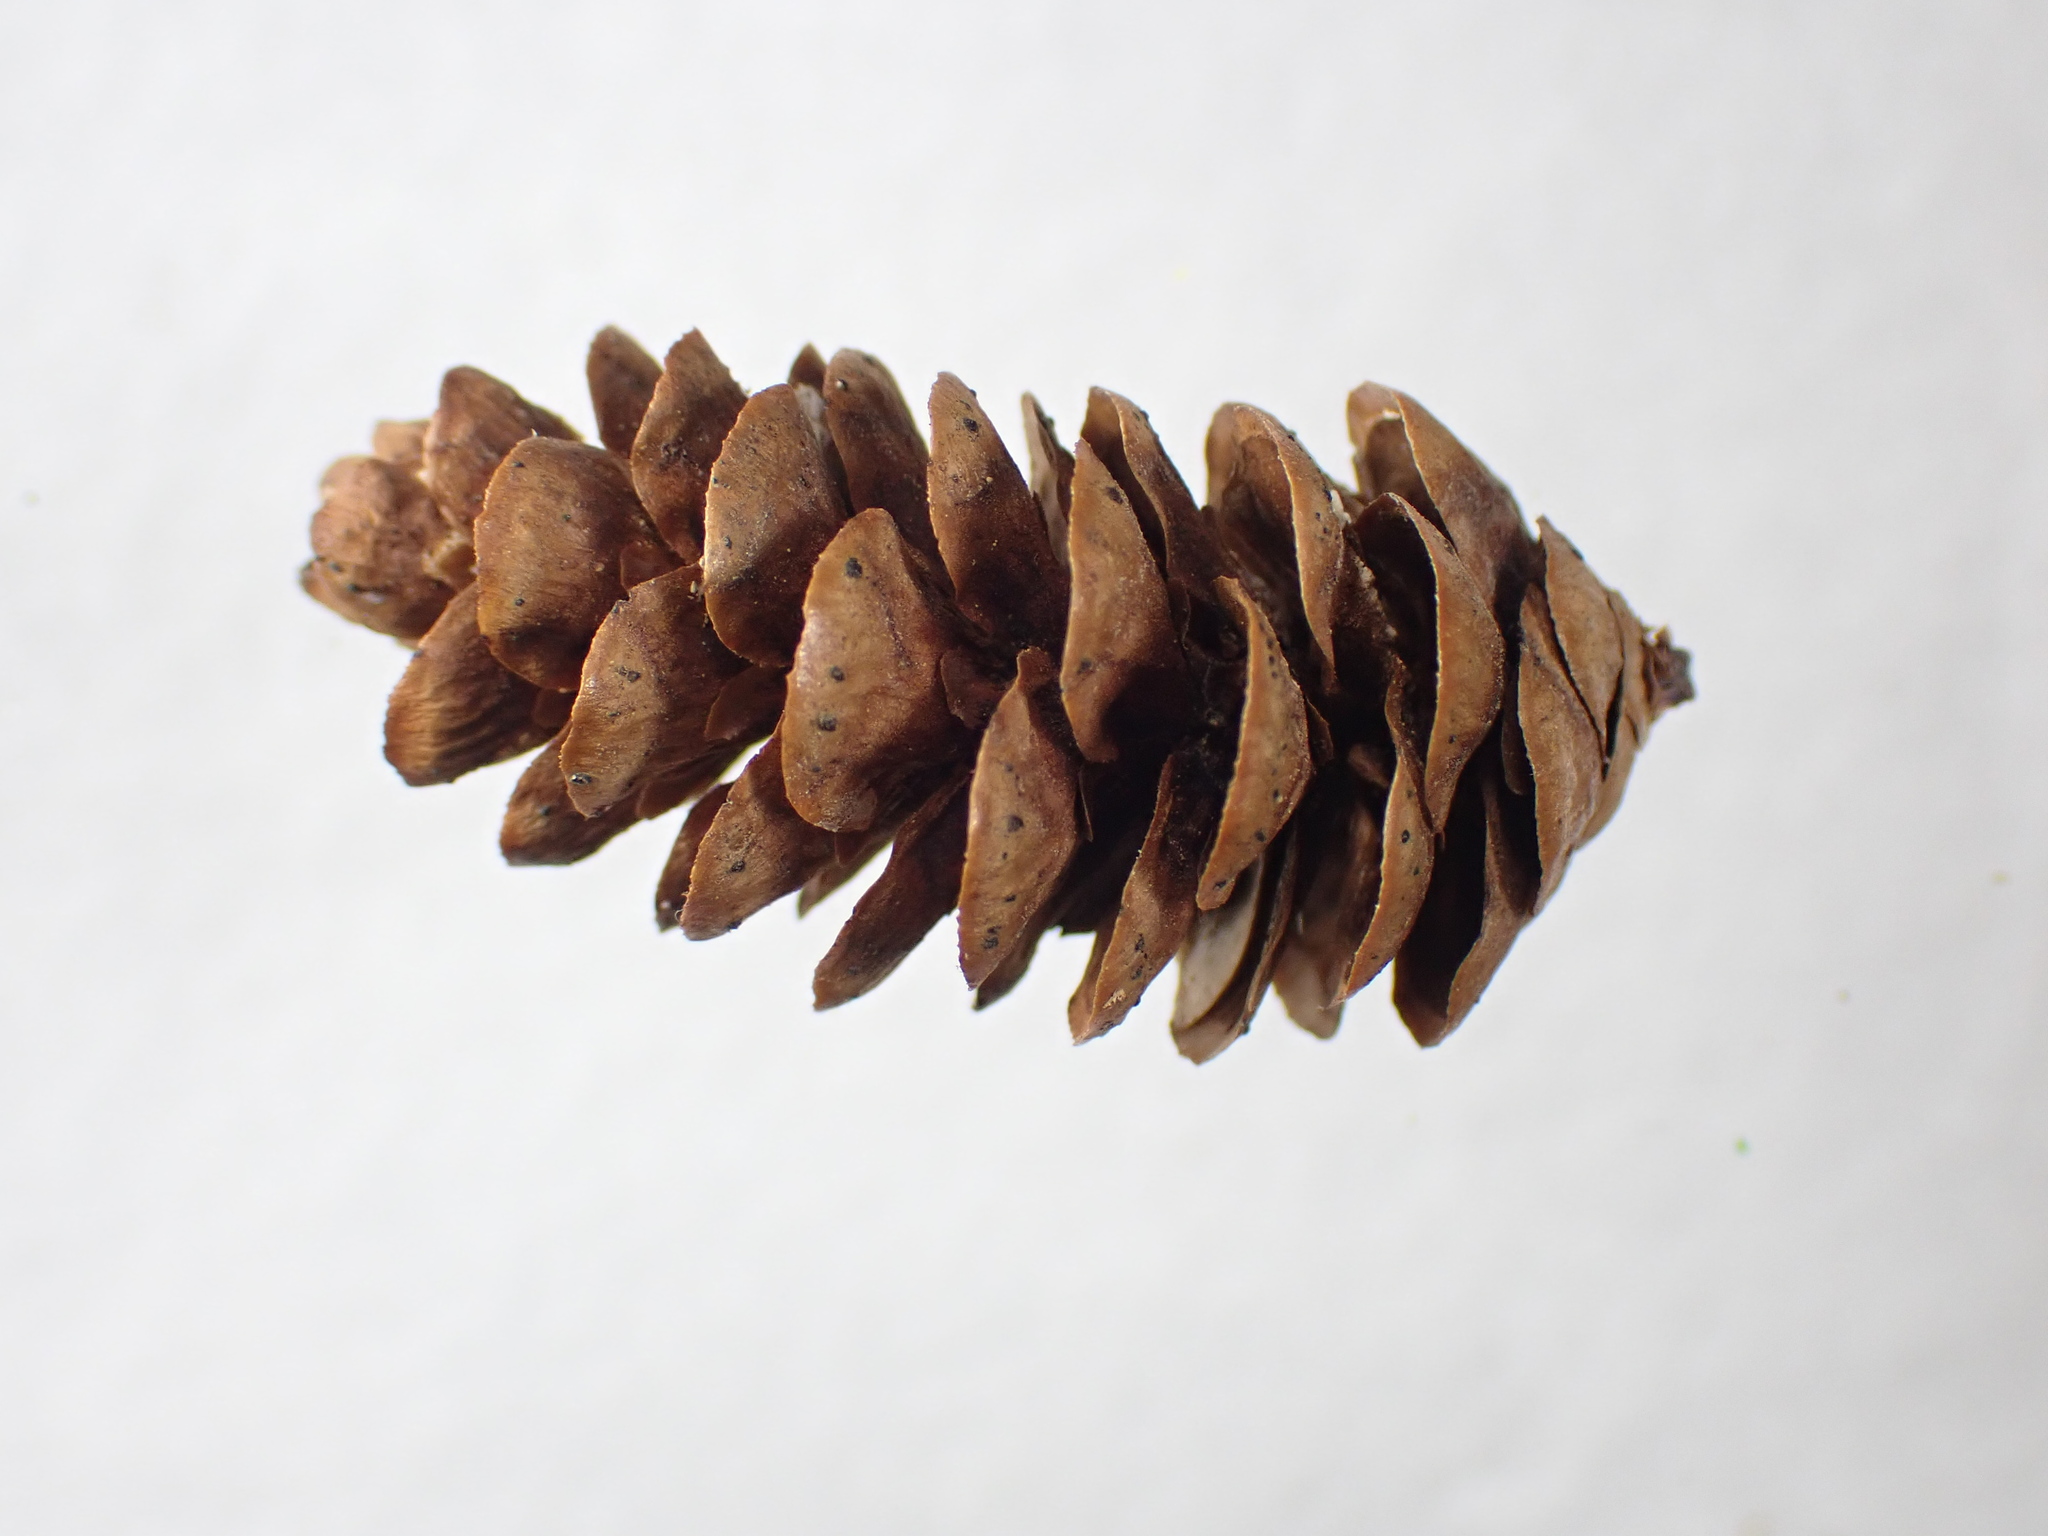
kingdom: Plantae
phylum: Tracheophyta
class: Pinopsida
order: Pinales
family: Pinaceae
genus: Picea
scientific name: Picea glauca
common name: White spruce
